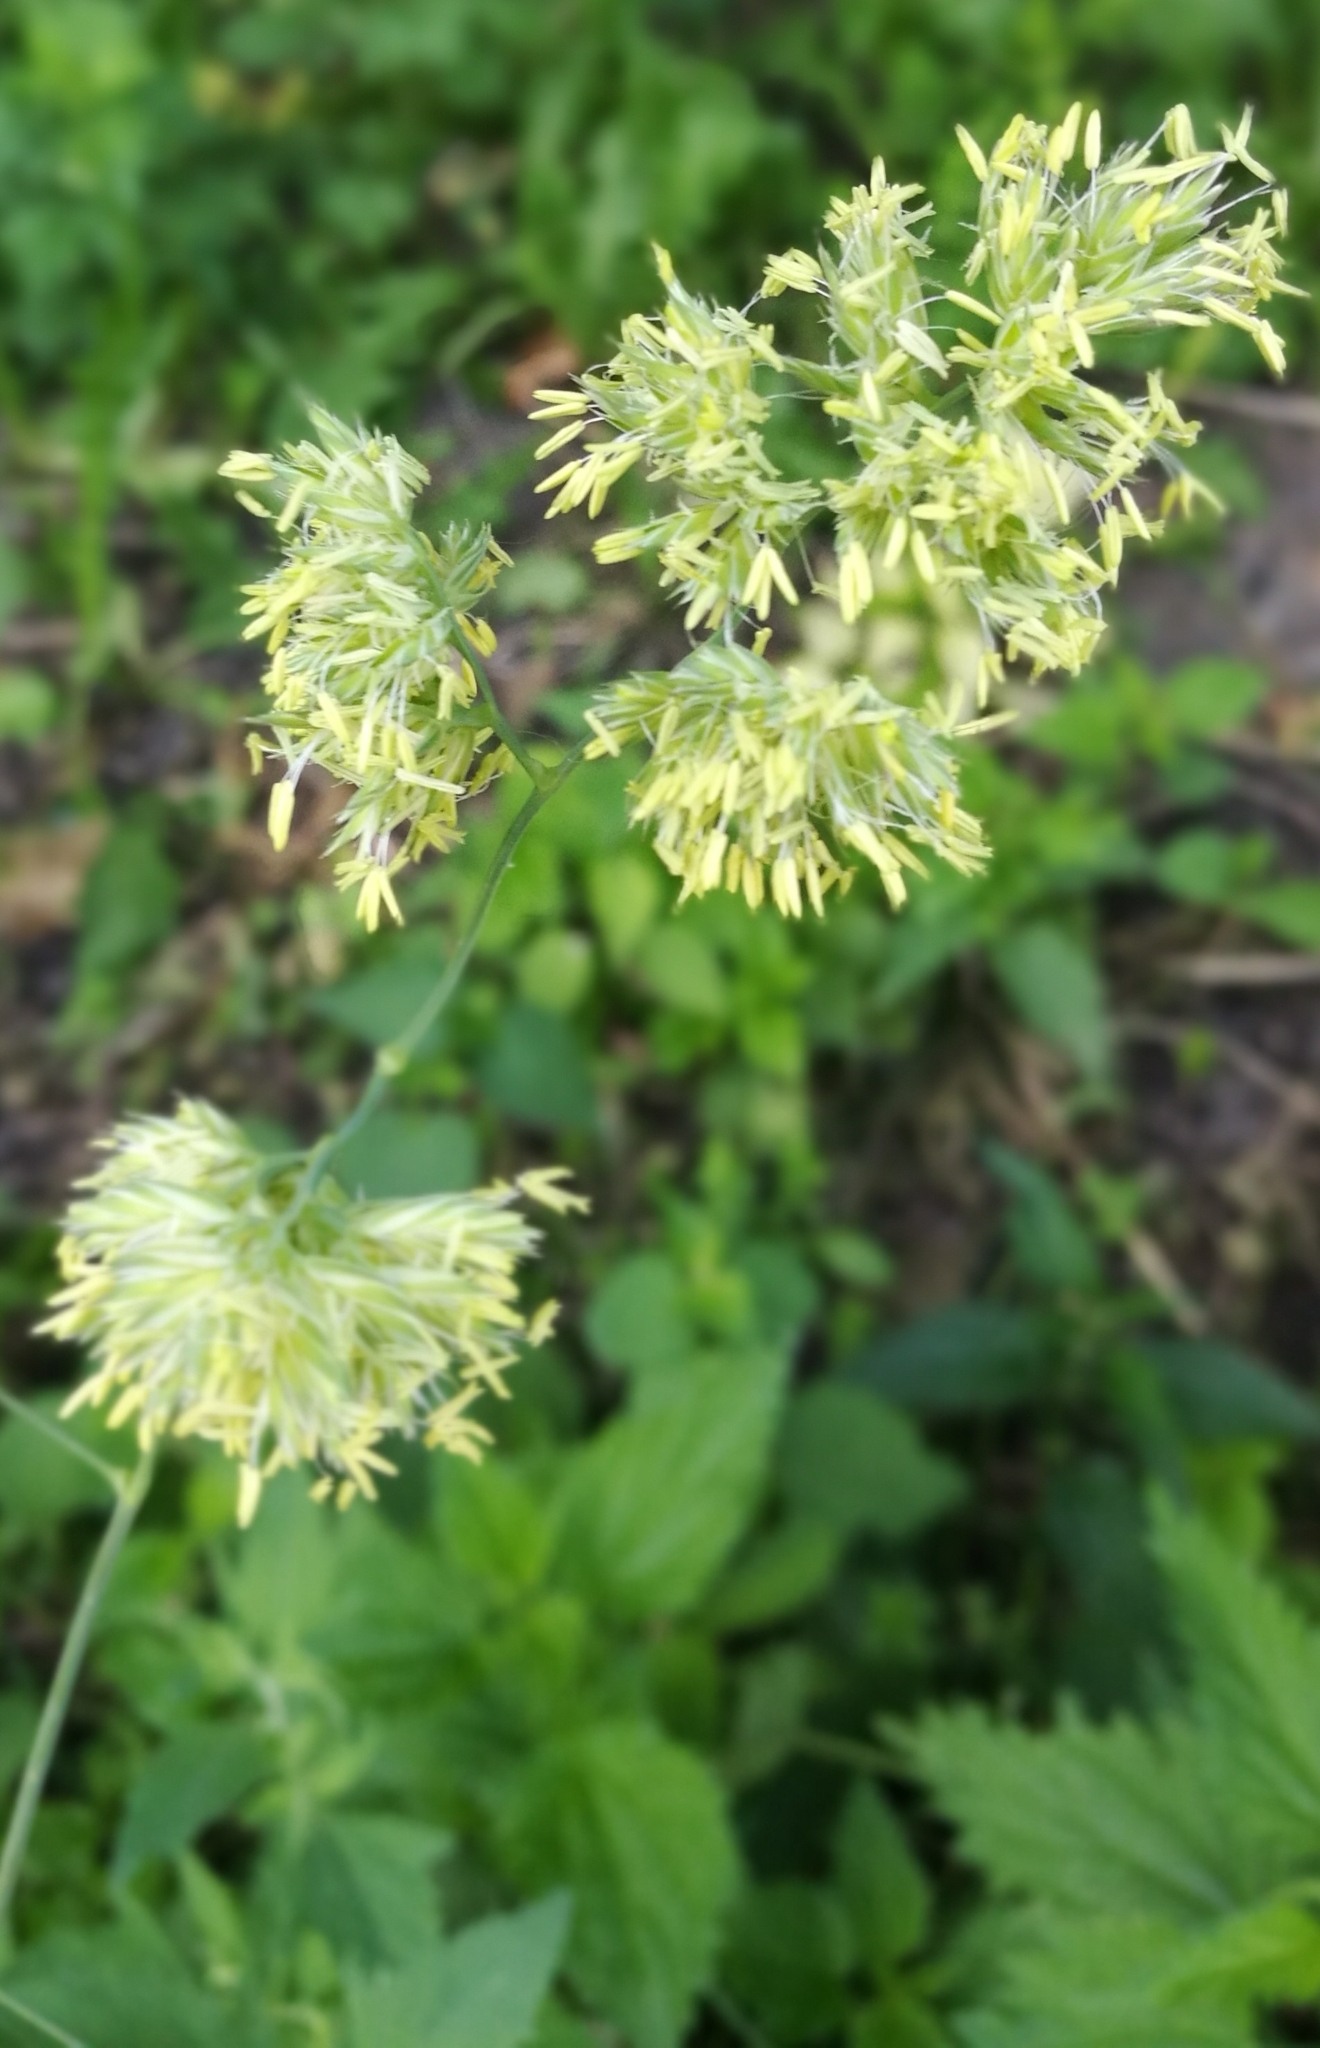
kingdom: Plantae
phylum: Tracheophyta
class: Liliopsida
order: Poales
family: Poaceae
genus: Dactylis
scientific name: Dactylis glomerata
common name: Orchardgrass
